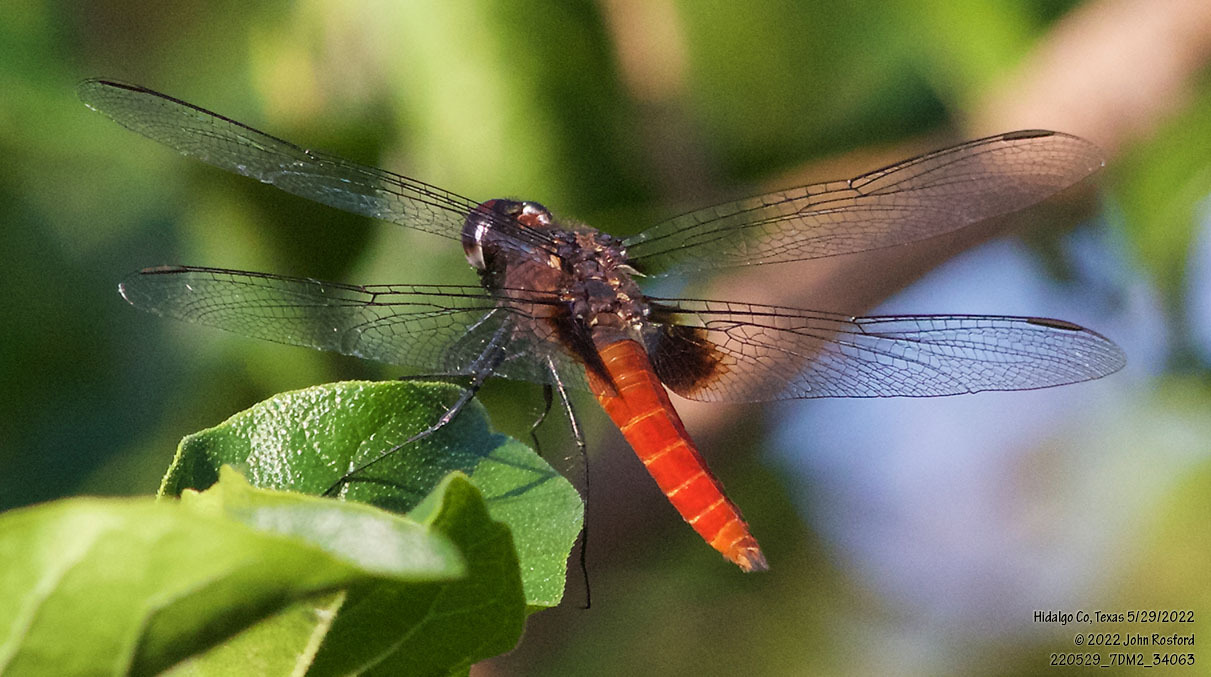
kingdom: Animalia
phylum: Arthropoda
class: Insecta
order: Odonata
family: Libellulidae
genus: Planiplax
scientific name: Planiplax sanguiniventris
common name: Mexican scarlet-tail
